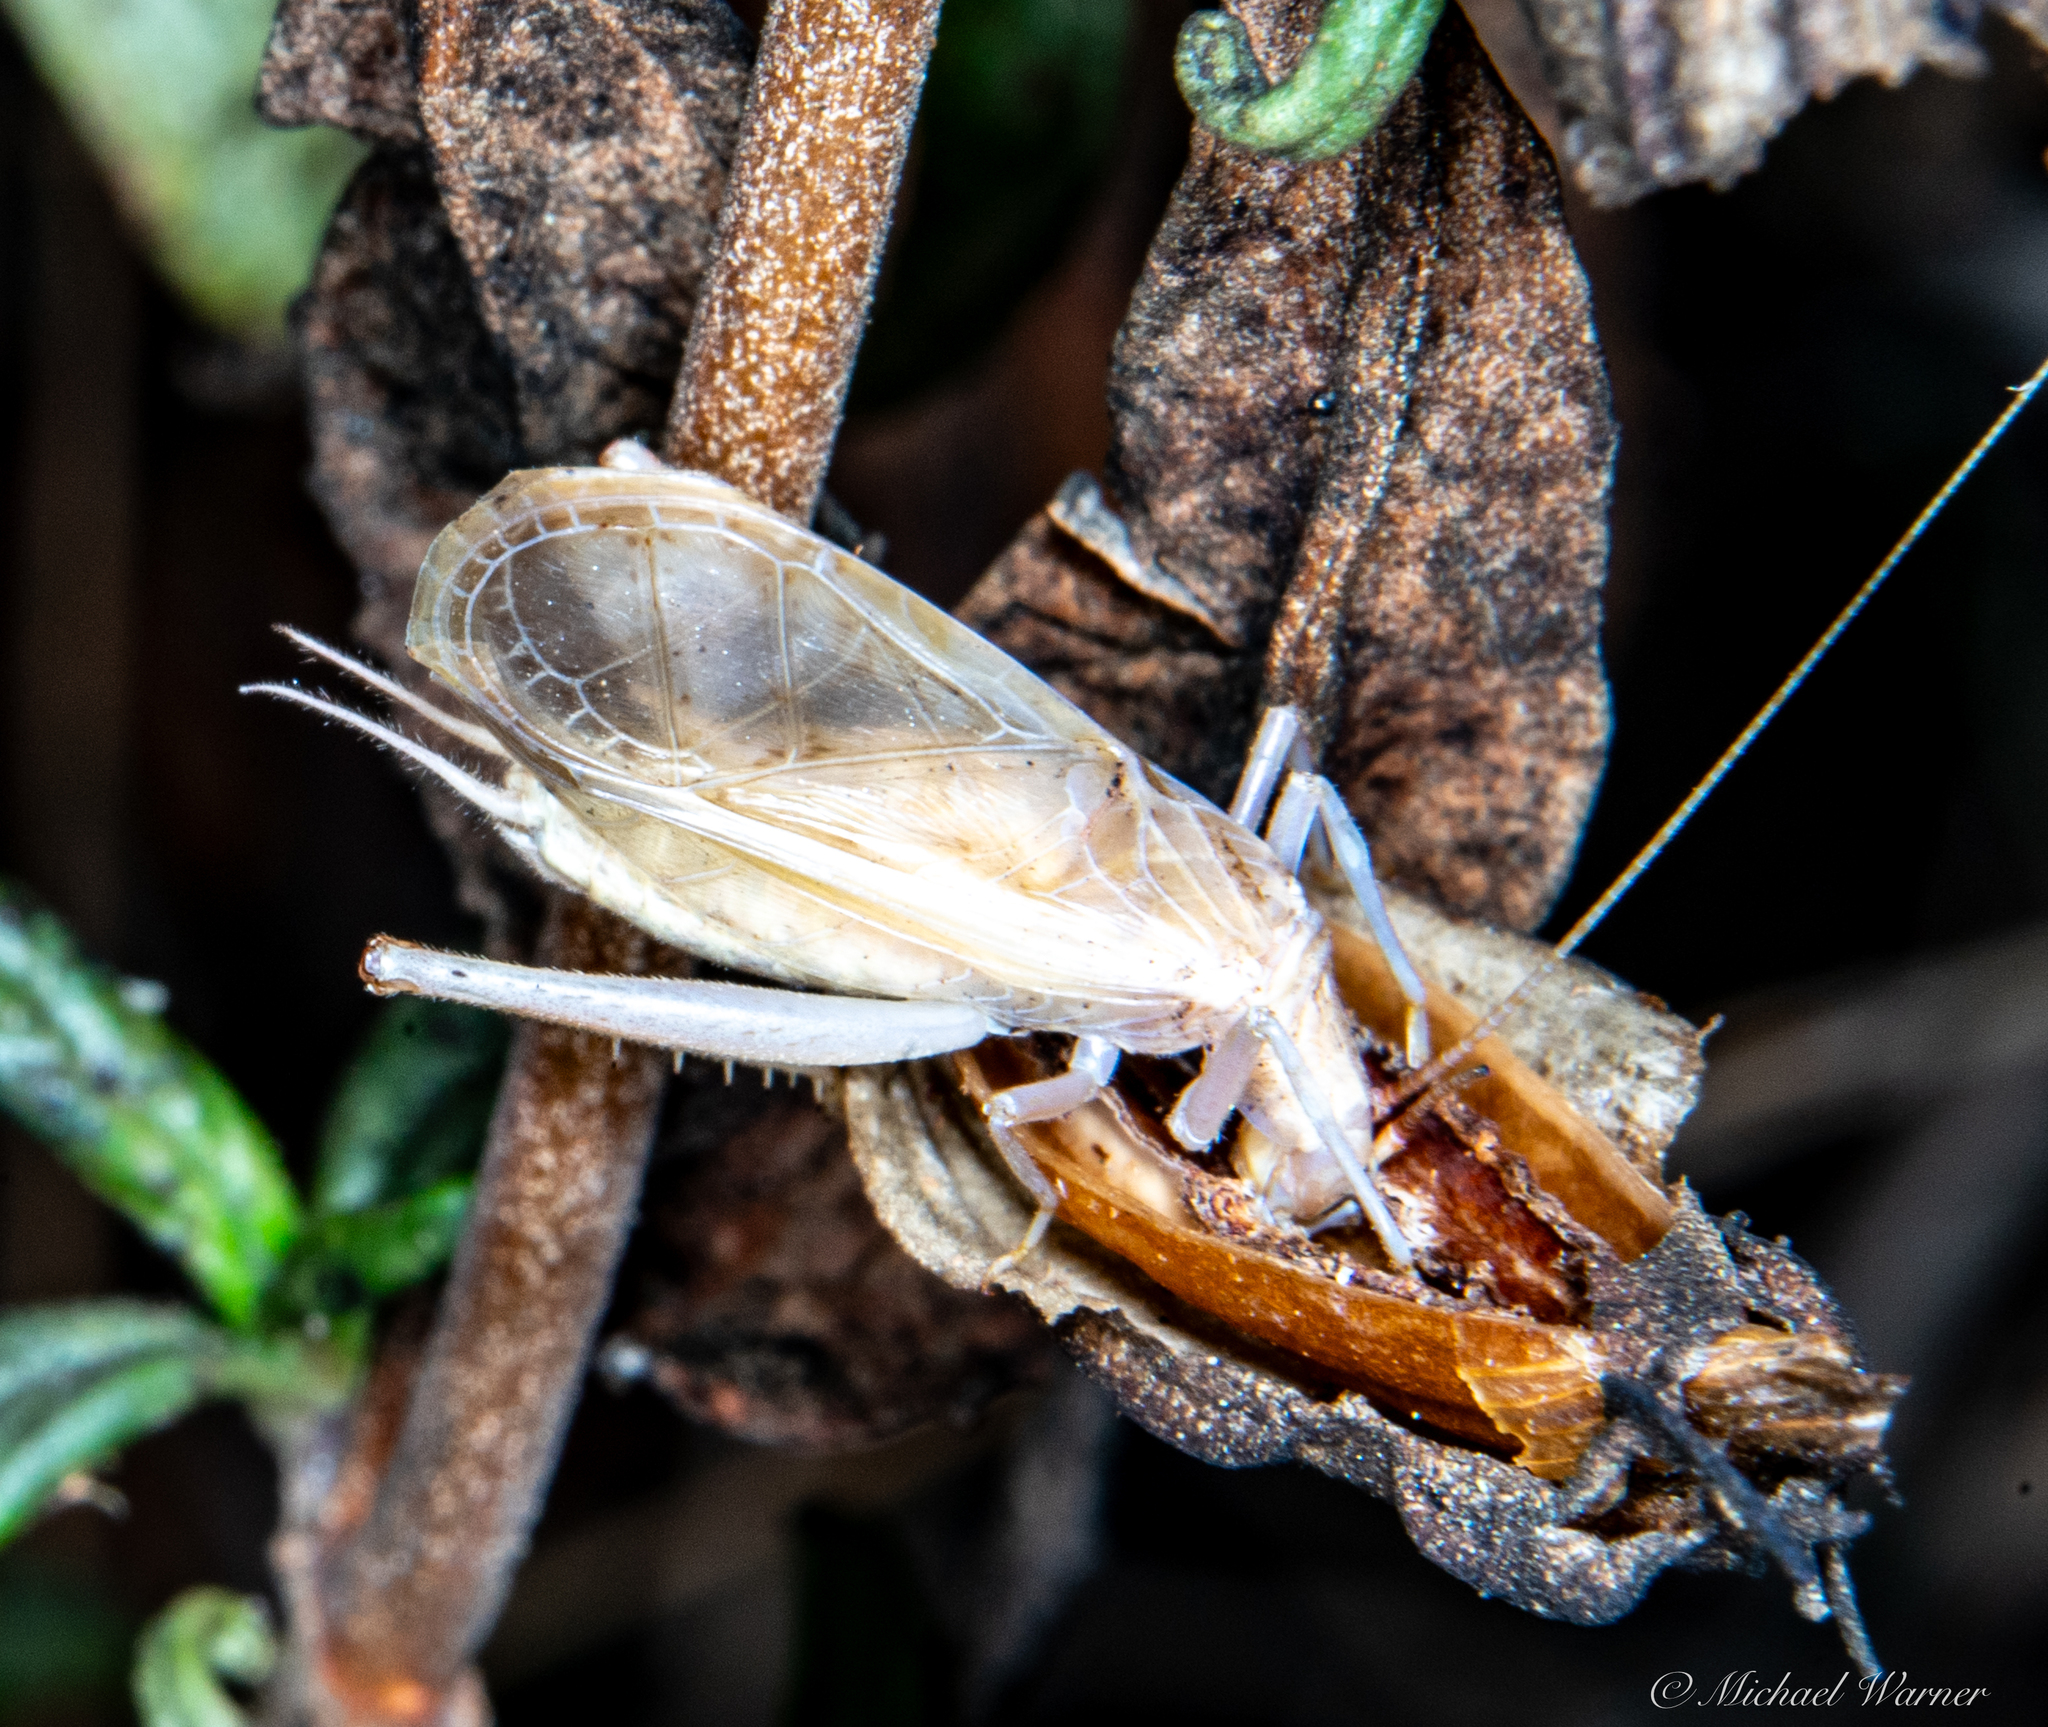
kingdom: Animalia
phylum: Arthropoda
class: Insecta
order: Orthoptera
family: Gryllidae
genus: Oecanthus
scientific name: Oecanthus californicus
